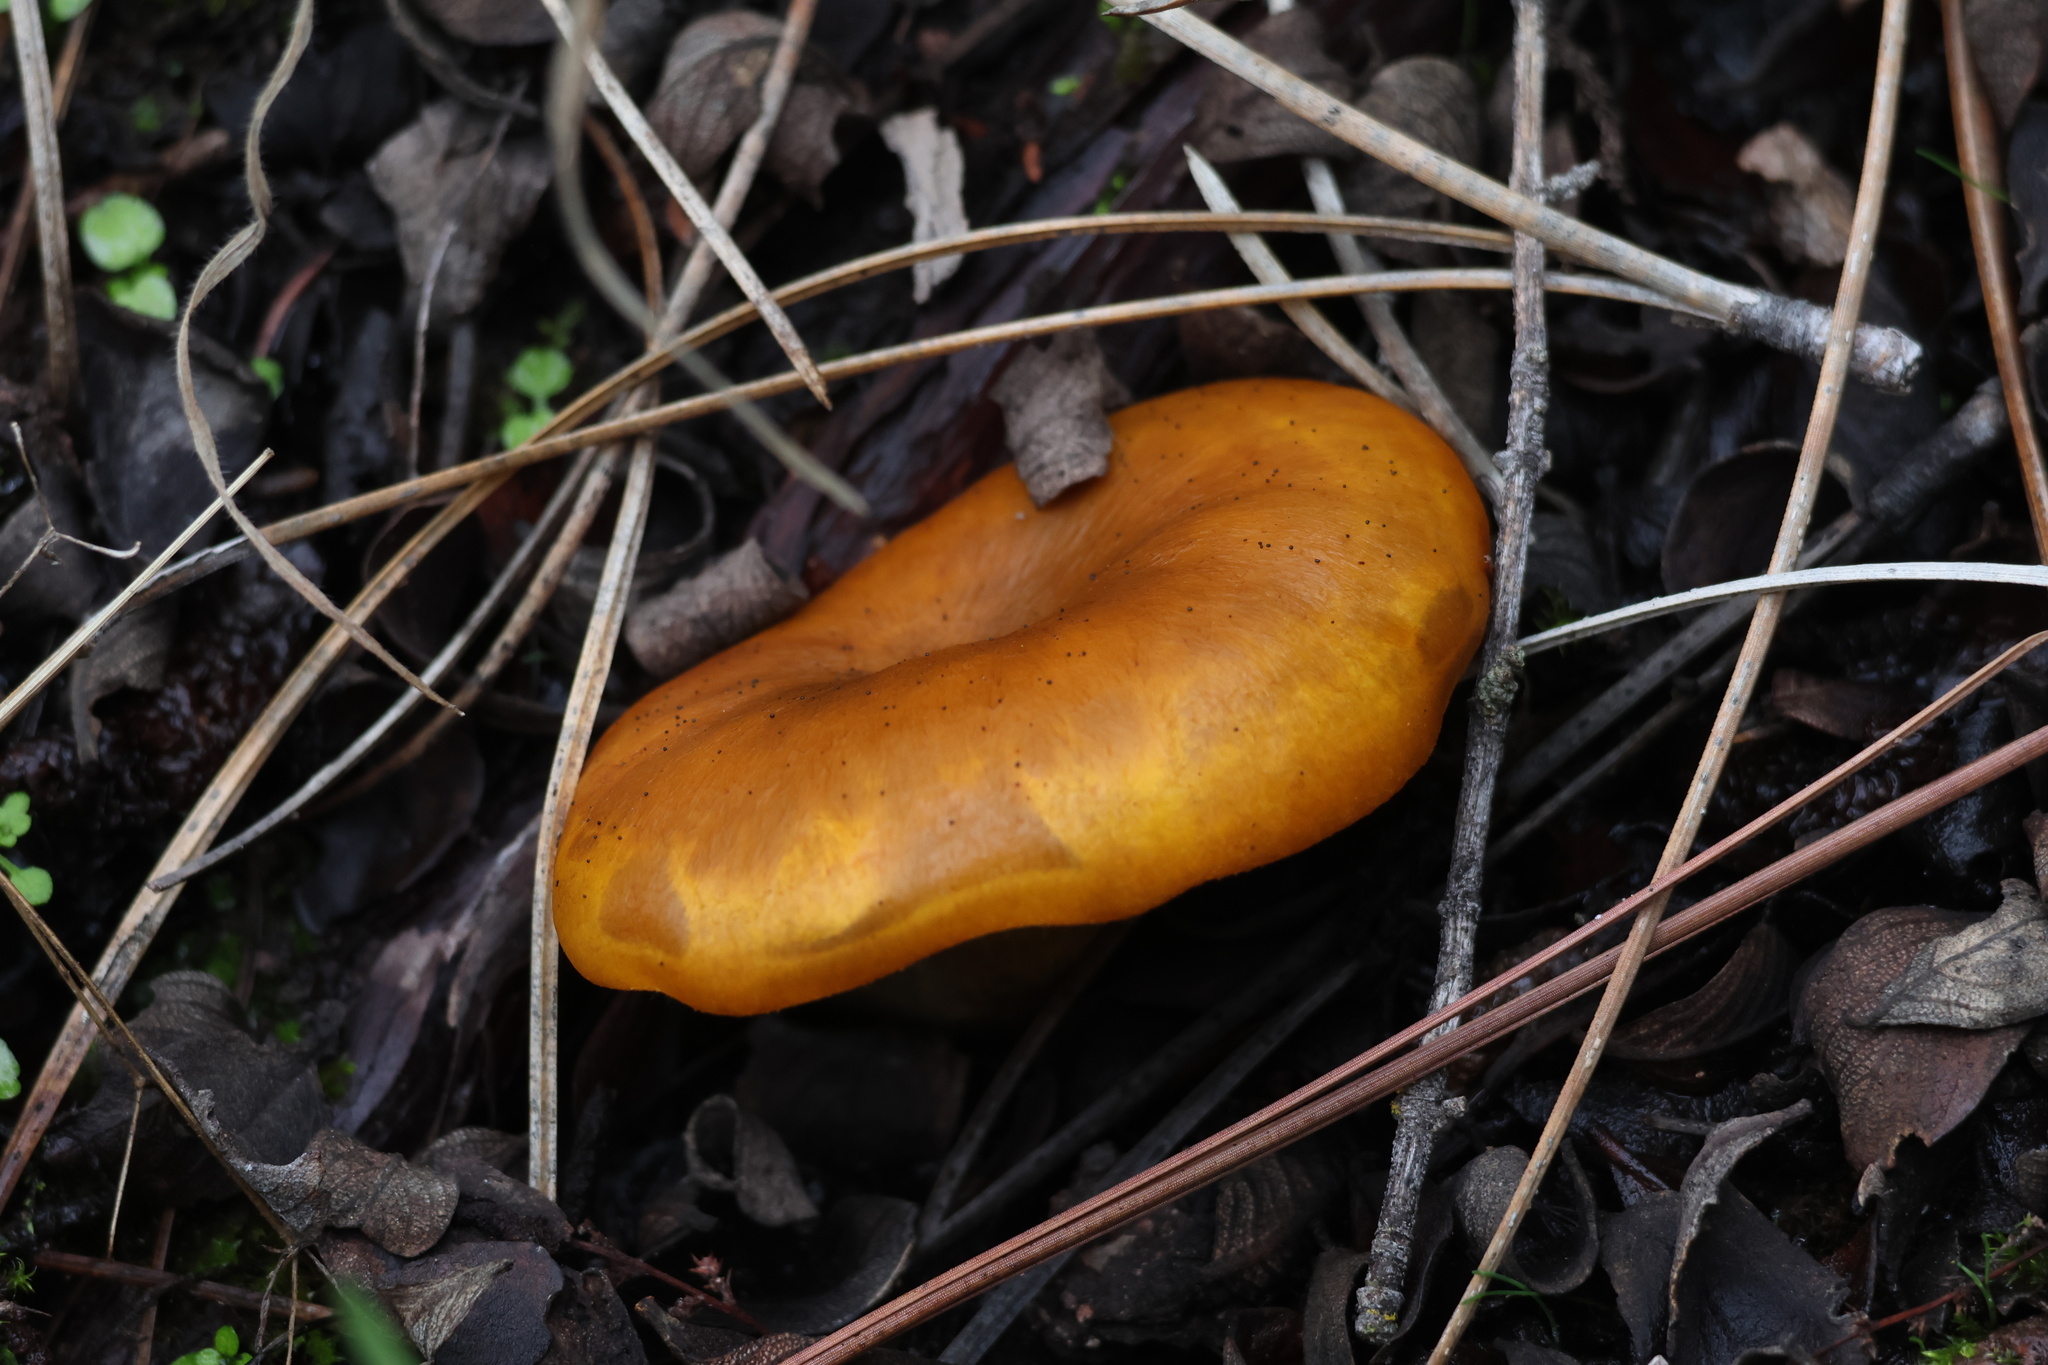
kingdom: Fungi
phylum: Basidiomycota
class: Agaricomycetes
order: Agaricales
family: Omphalotaceae
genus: Omphalotus
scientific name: Omphalotus olivascens
